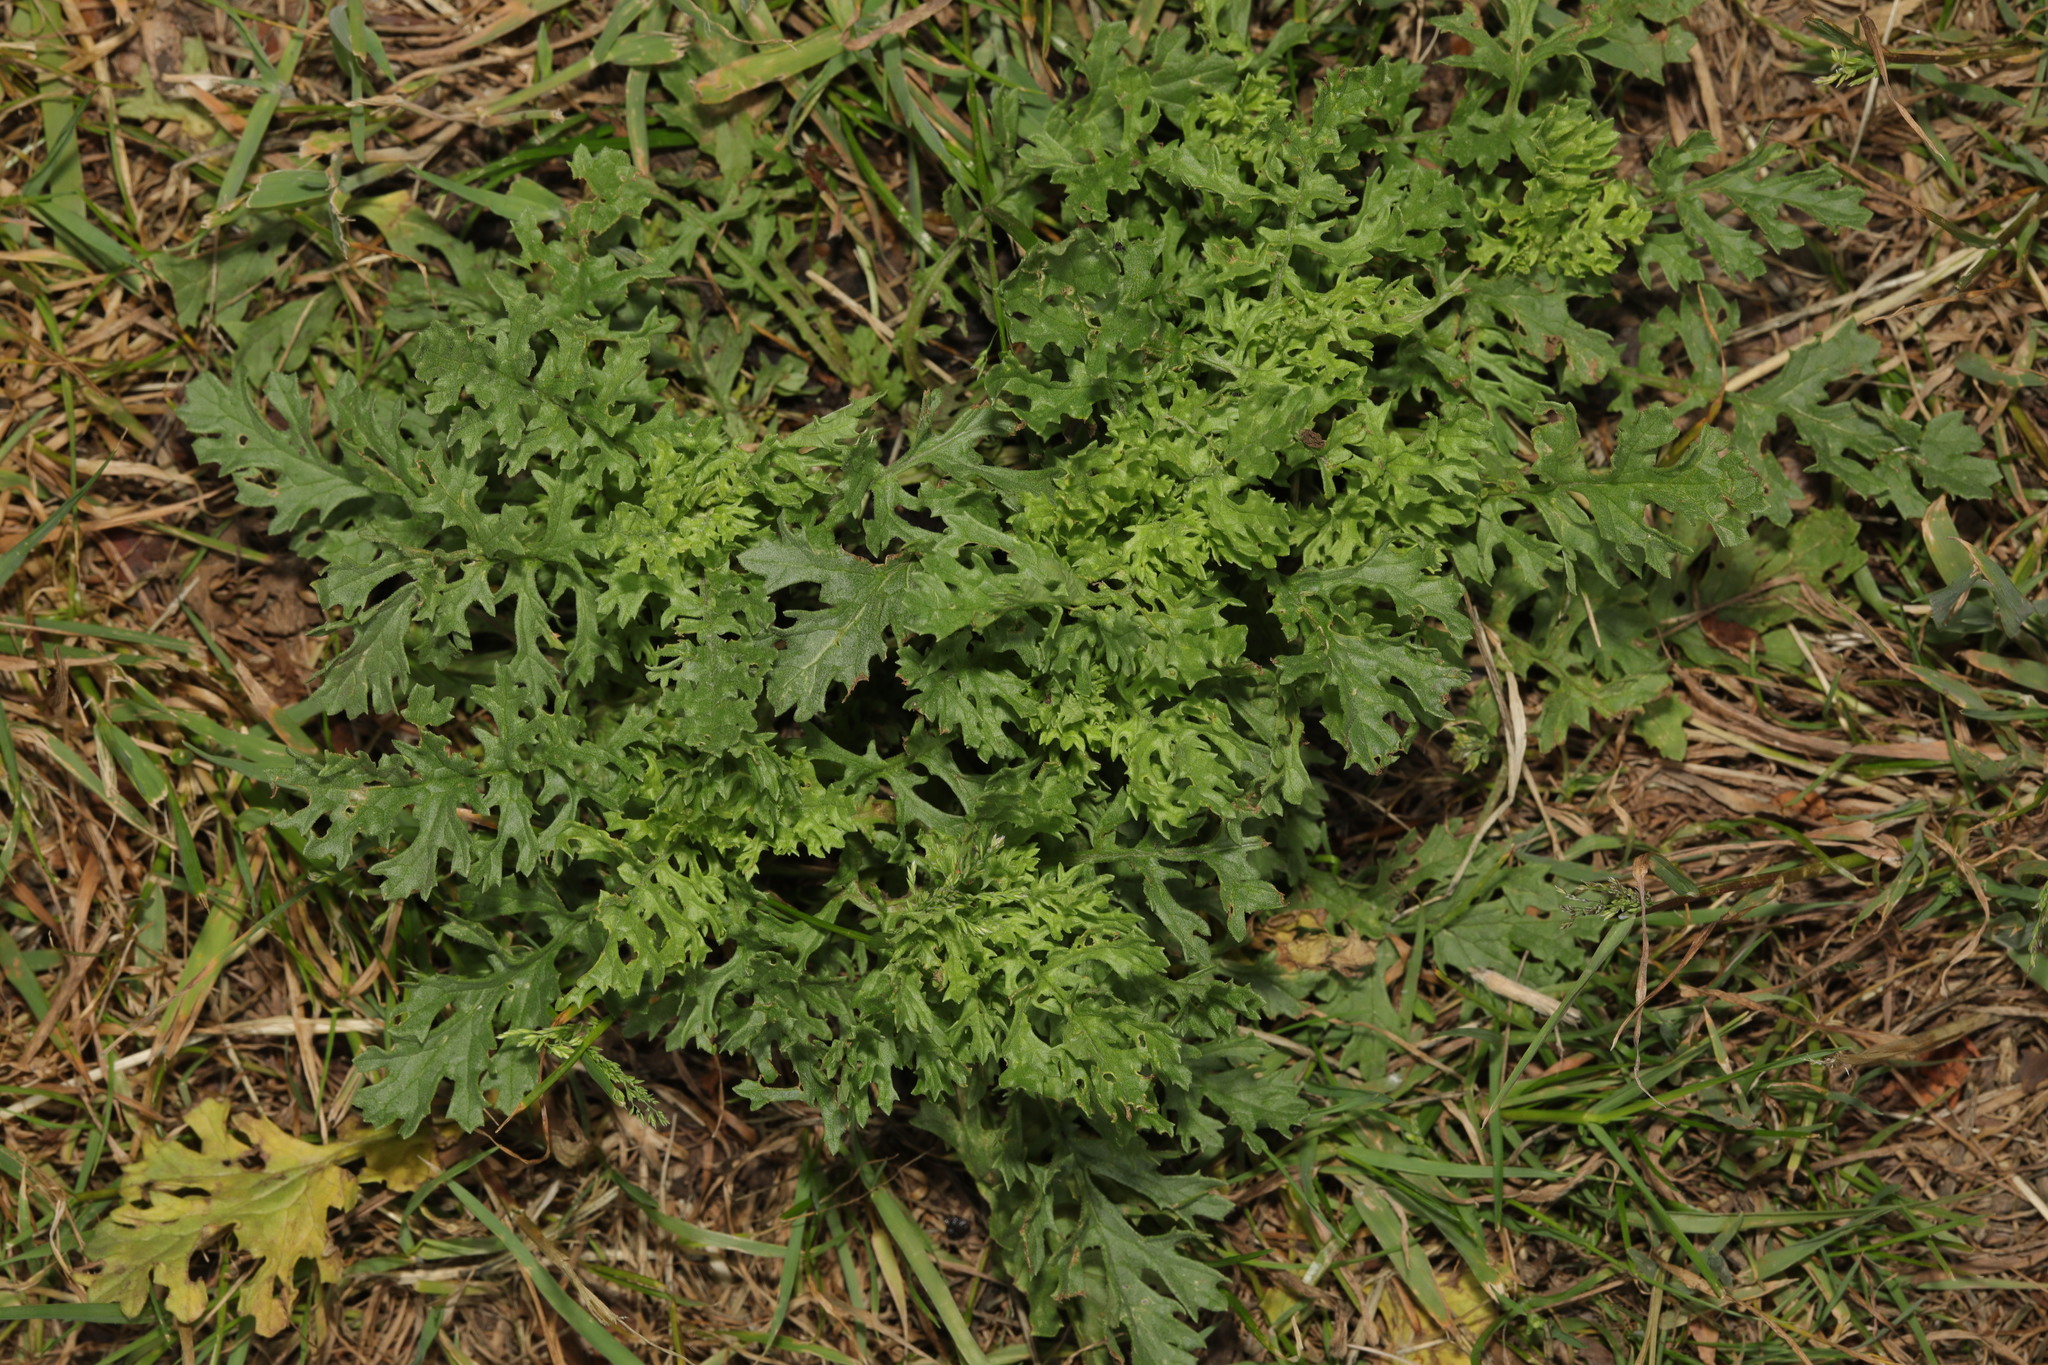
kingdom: Plantae
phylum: Tracheophyta
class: Magnoliopsida
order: Asterales
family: Asteraceae
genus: Jacobaea
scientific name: Jacobaea vulgaris
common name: Stinking willie
